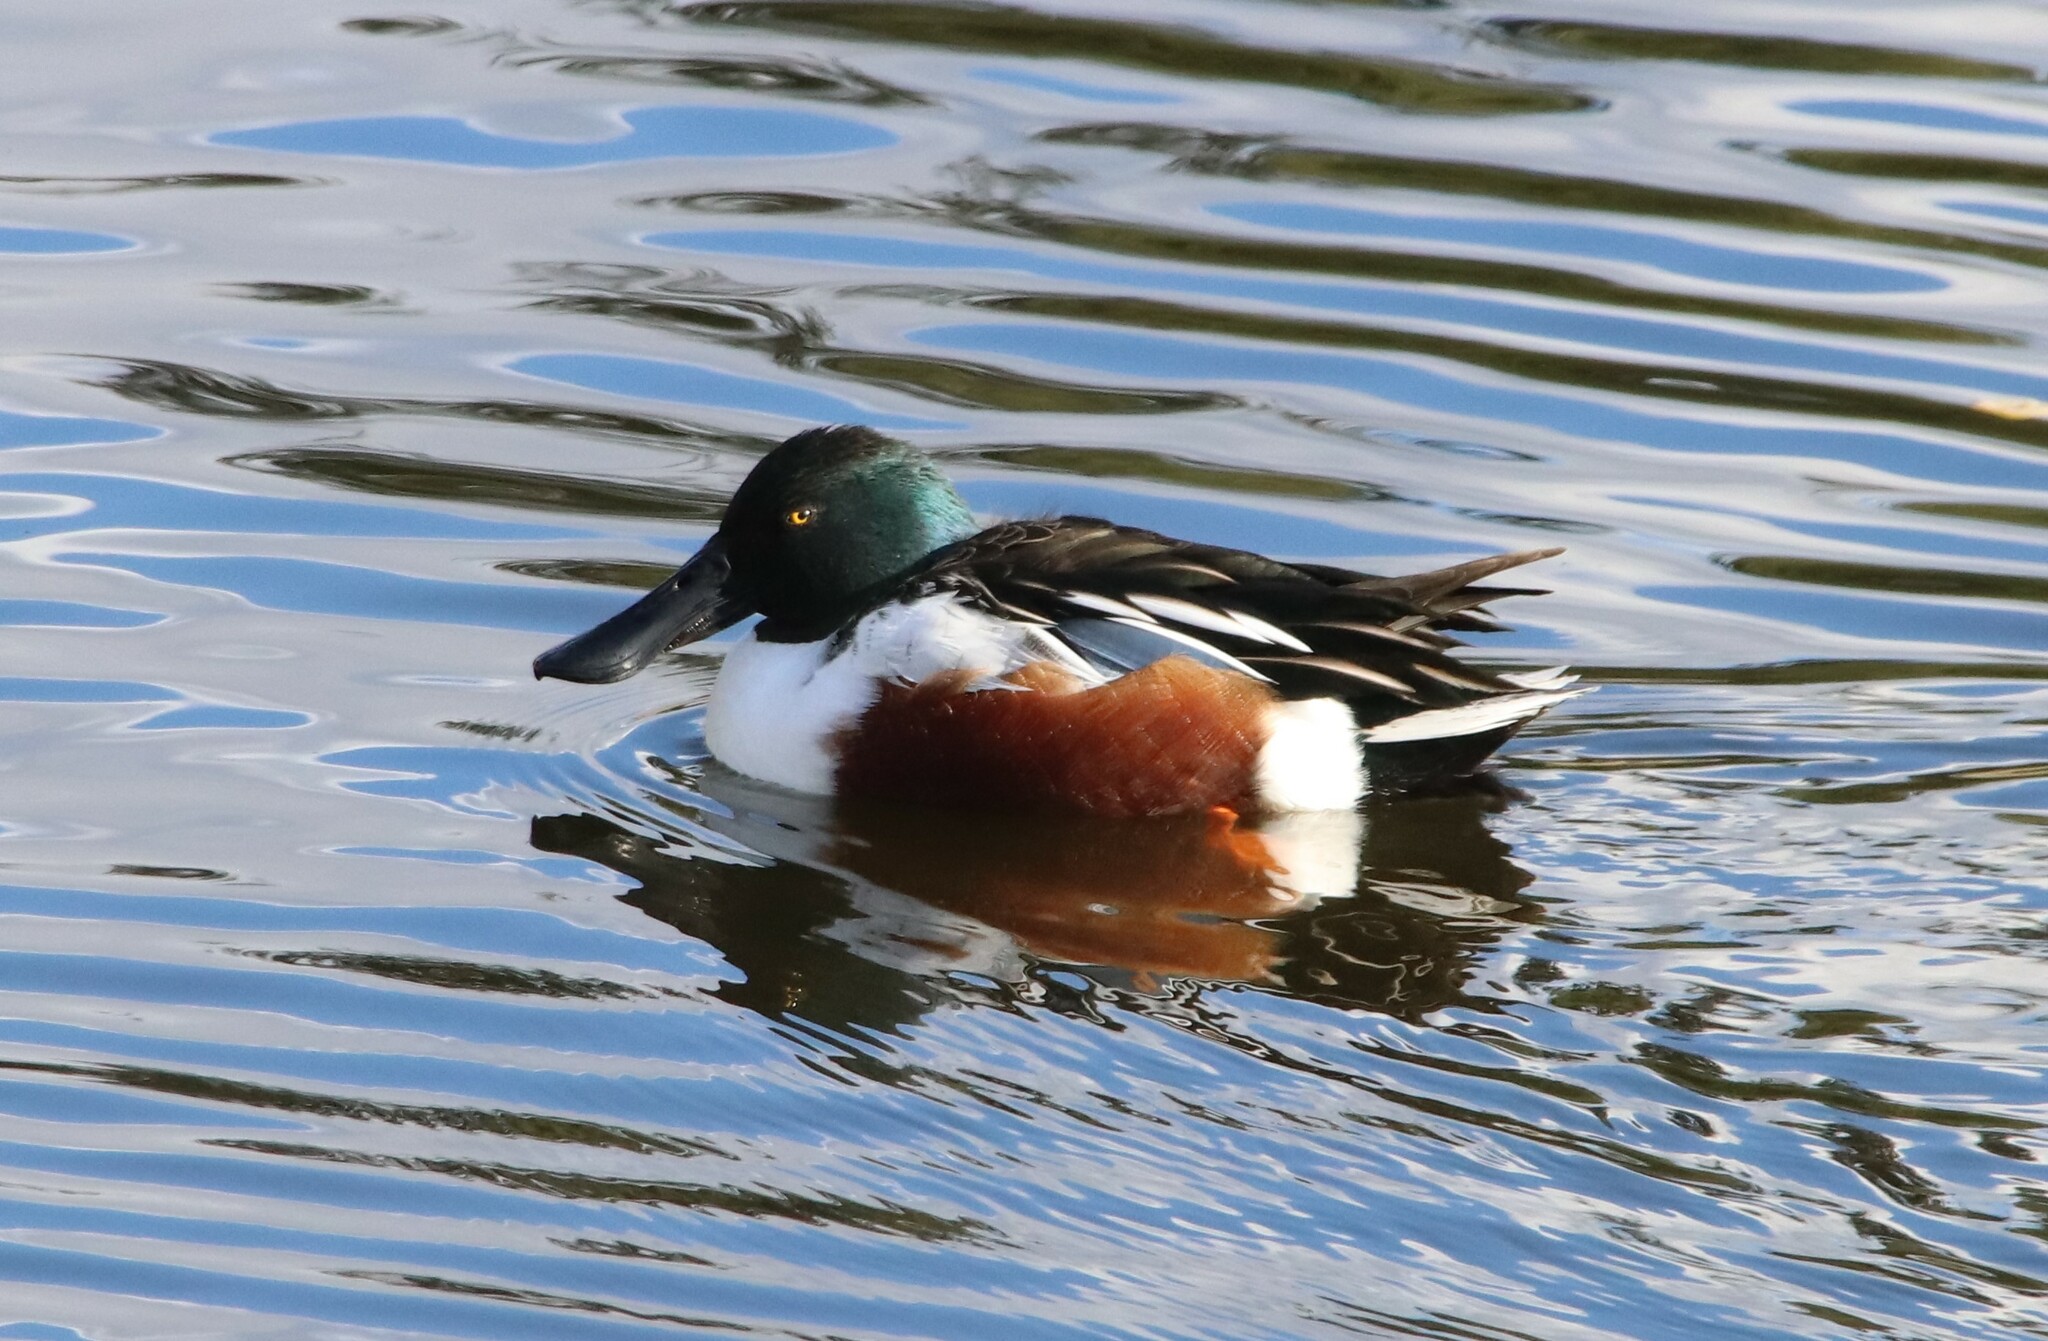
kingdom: Animalia
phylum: Chordata
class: Aves
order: Anseriformes
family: Anatidae
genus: Spatula
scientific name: Spatula clypeata
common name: Northern shoveler
